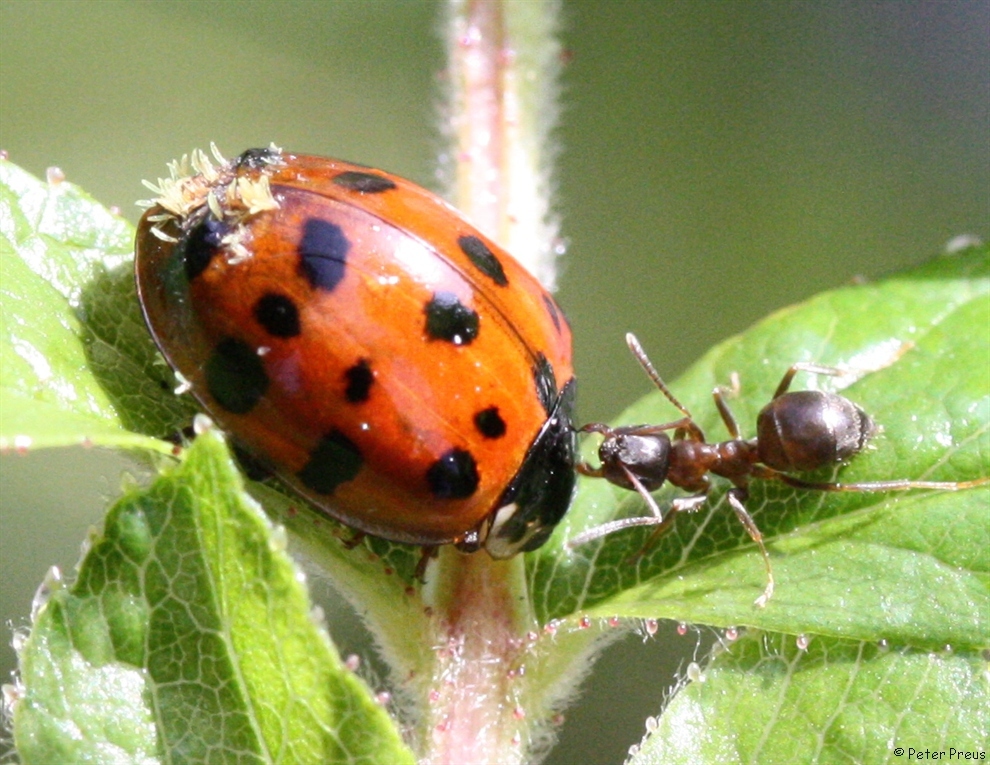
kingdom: Fungi
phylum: Ascomycota
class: Laboulbeniomycetes
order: Laboulbeniales
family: Laboulbeniaceae
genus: Hesperomyces
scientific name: Hesperomyces harmoniae
